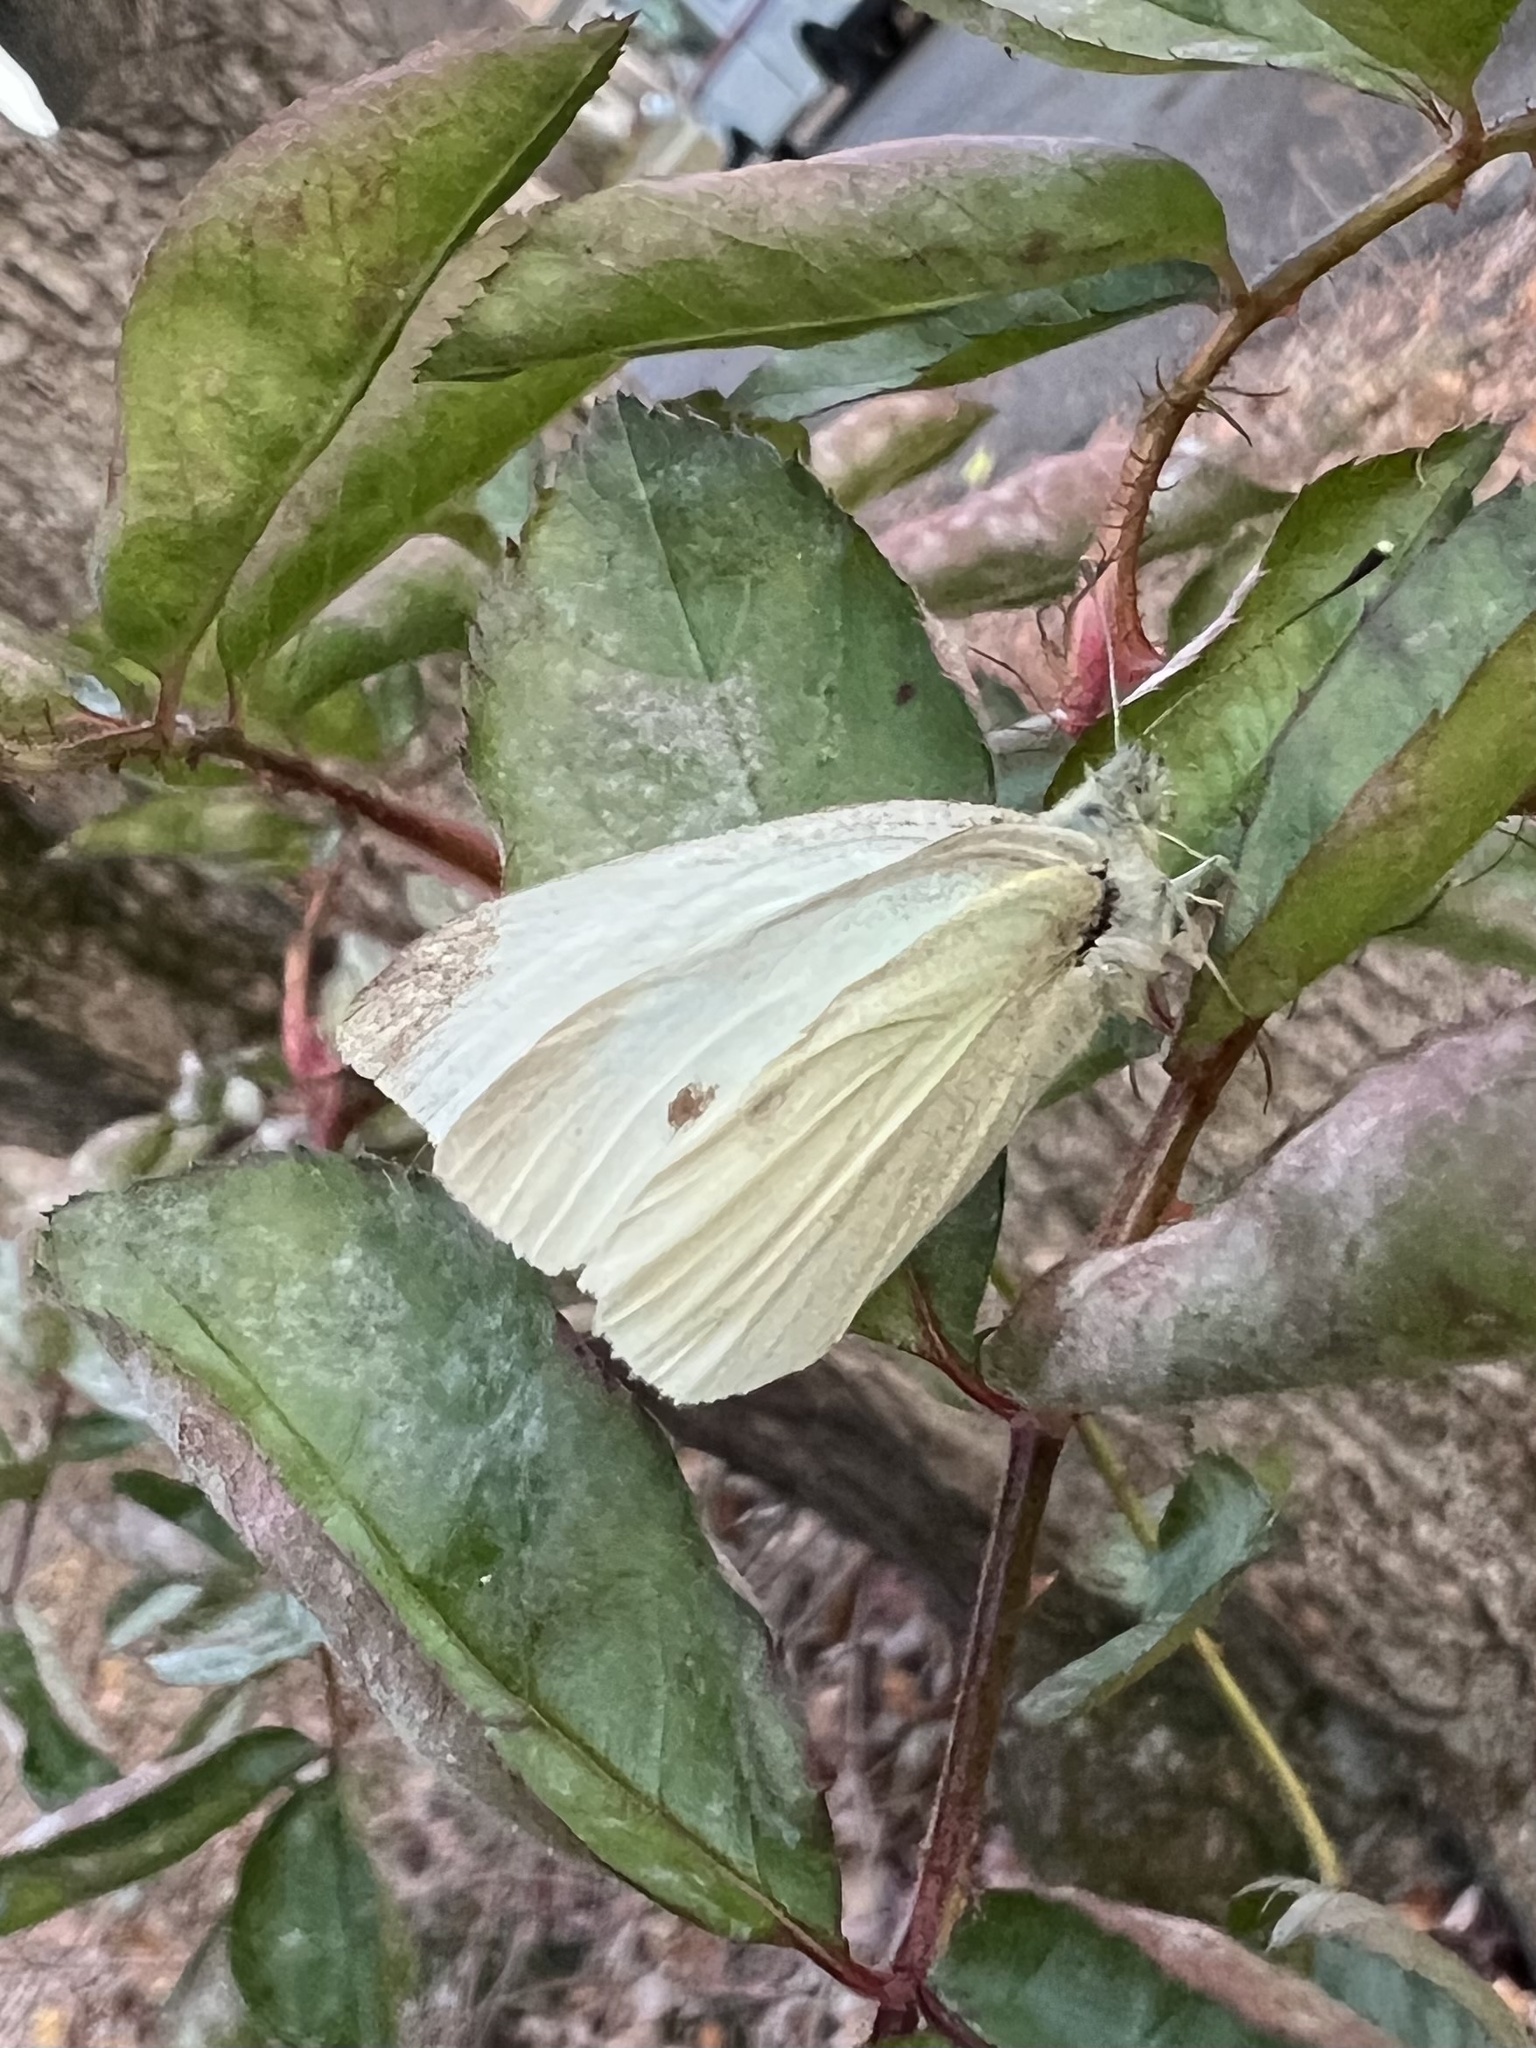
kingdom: Animalia
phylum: Arthropoda
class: Insecta
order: Lepidoptera
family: Pieridae
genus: Pieris
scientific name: Pieris rapae
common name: Small white
